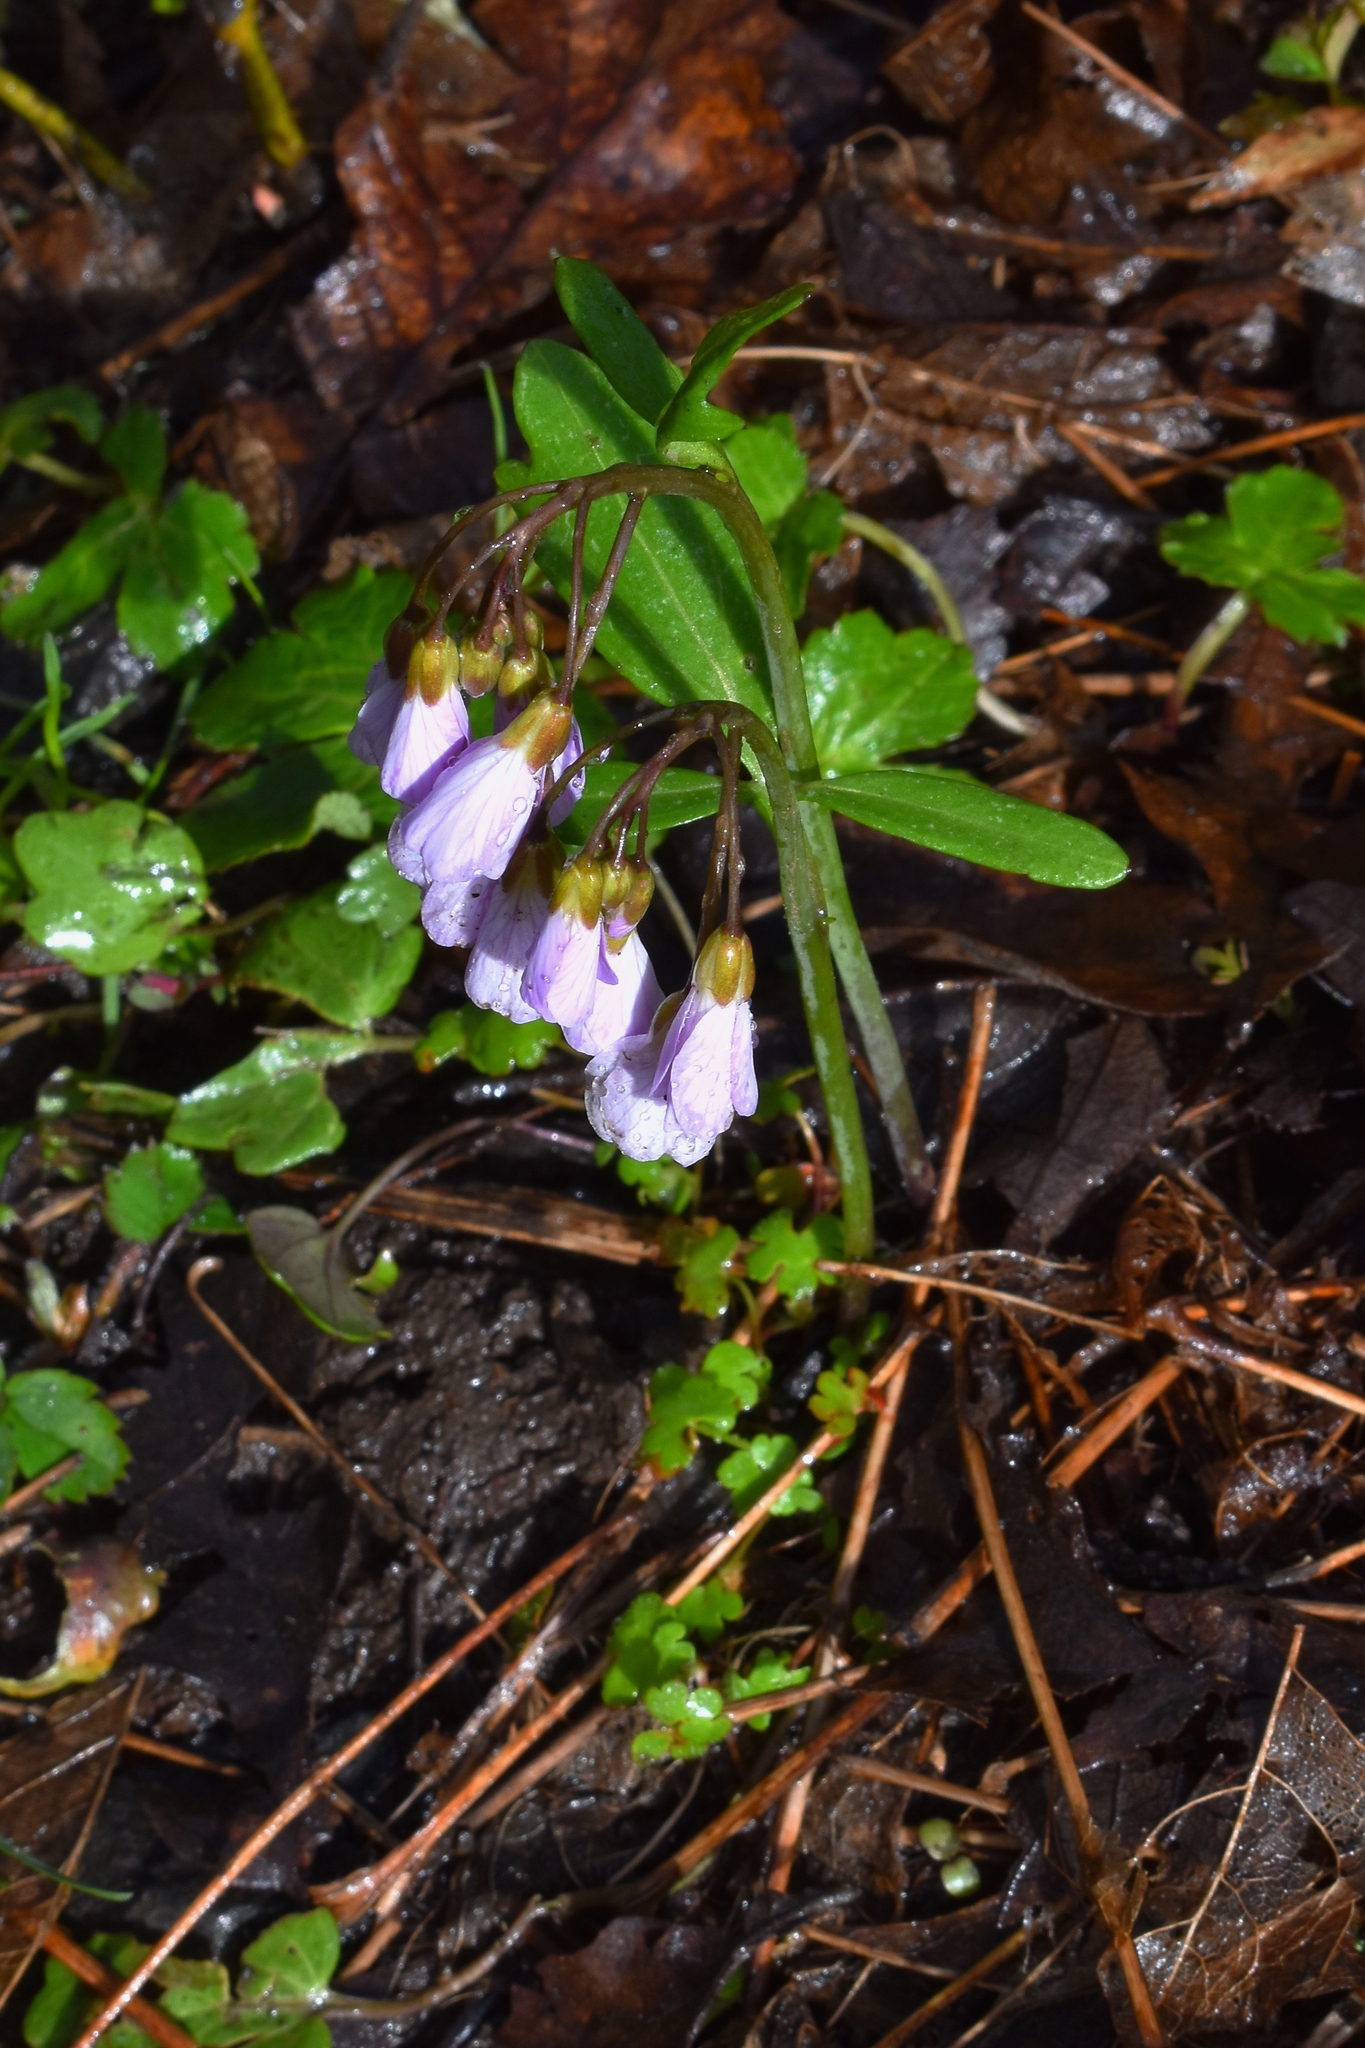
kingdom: Plantae
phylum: Tracheophyta
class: Magnoliopsida
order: Brassicales
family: Brassicaceae
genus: Cardamine
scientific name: Cardamine nuttallii
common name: Nuttall's toothwort
